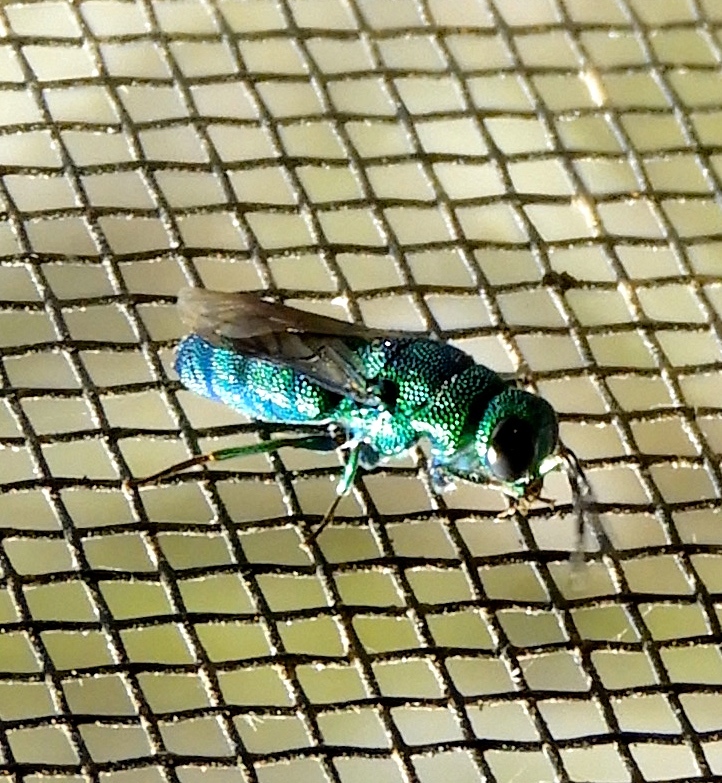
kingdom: Animalia
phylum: Arthropoda
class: Insecta
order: Hymenoptera
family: Chrysididae
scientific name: Chrysididae
